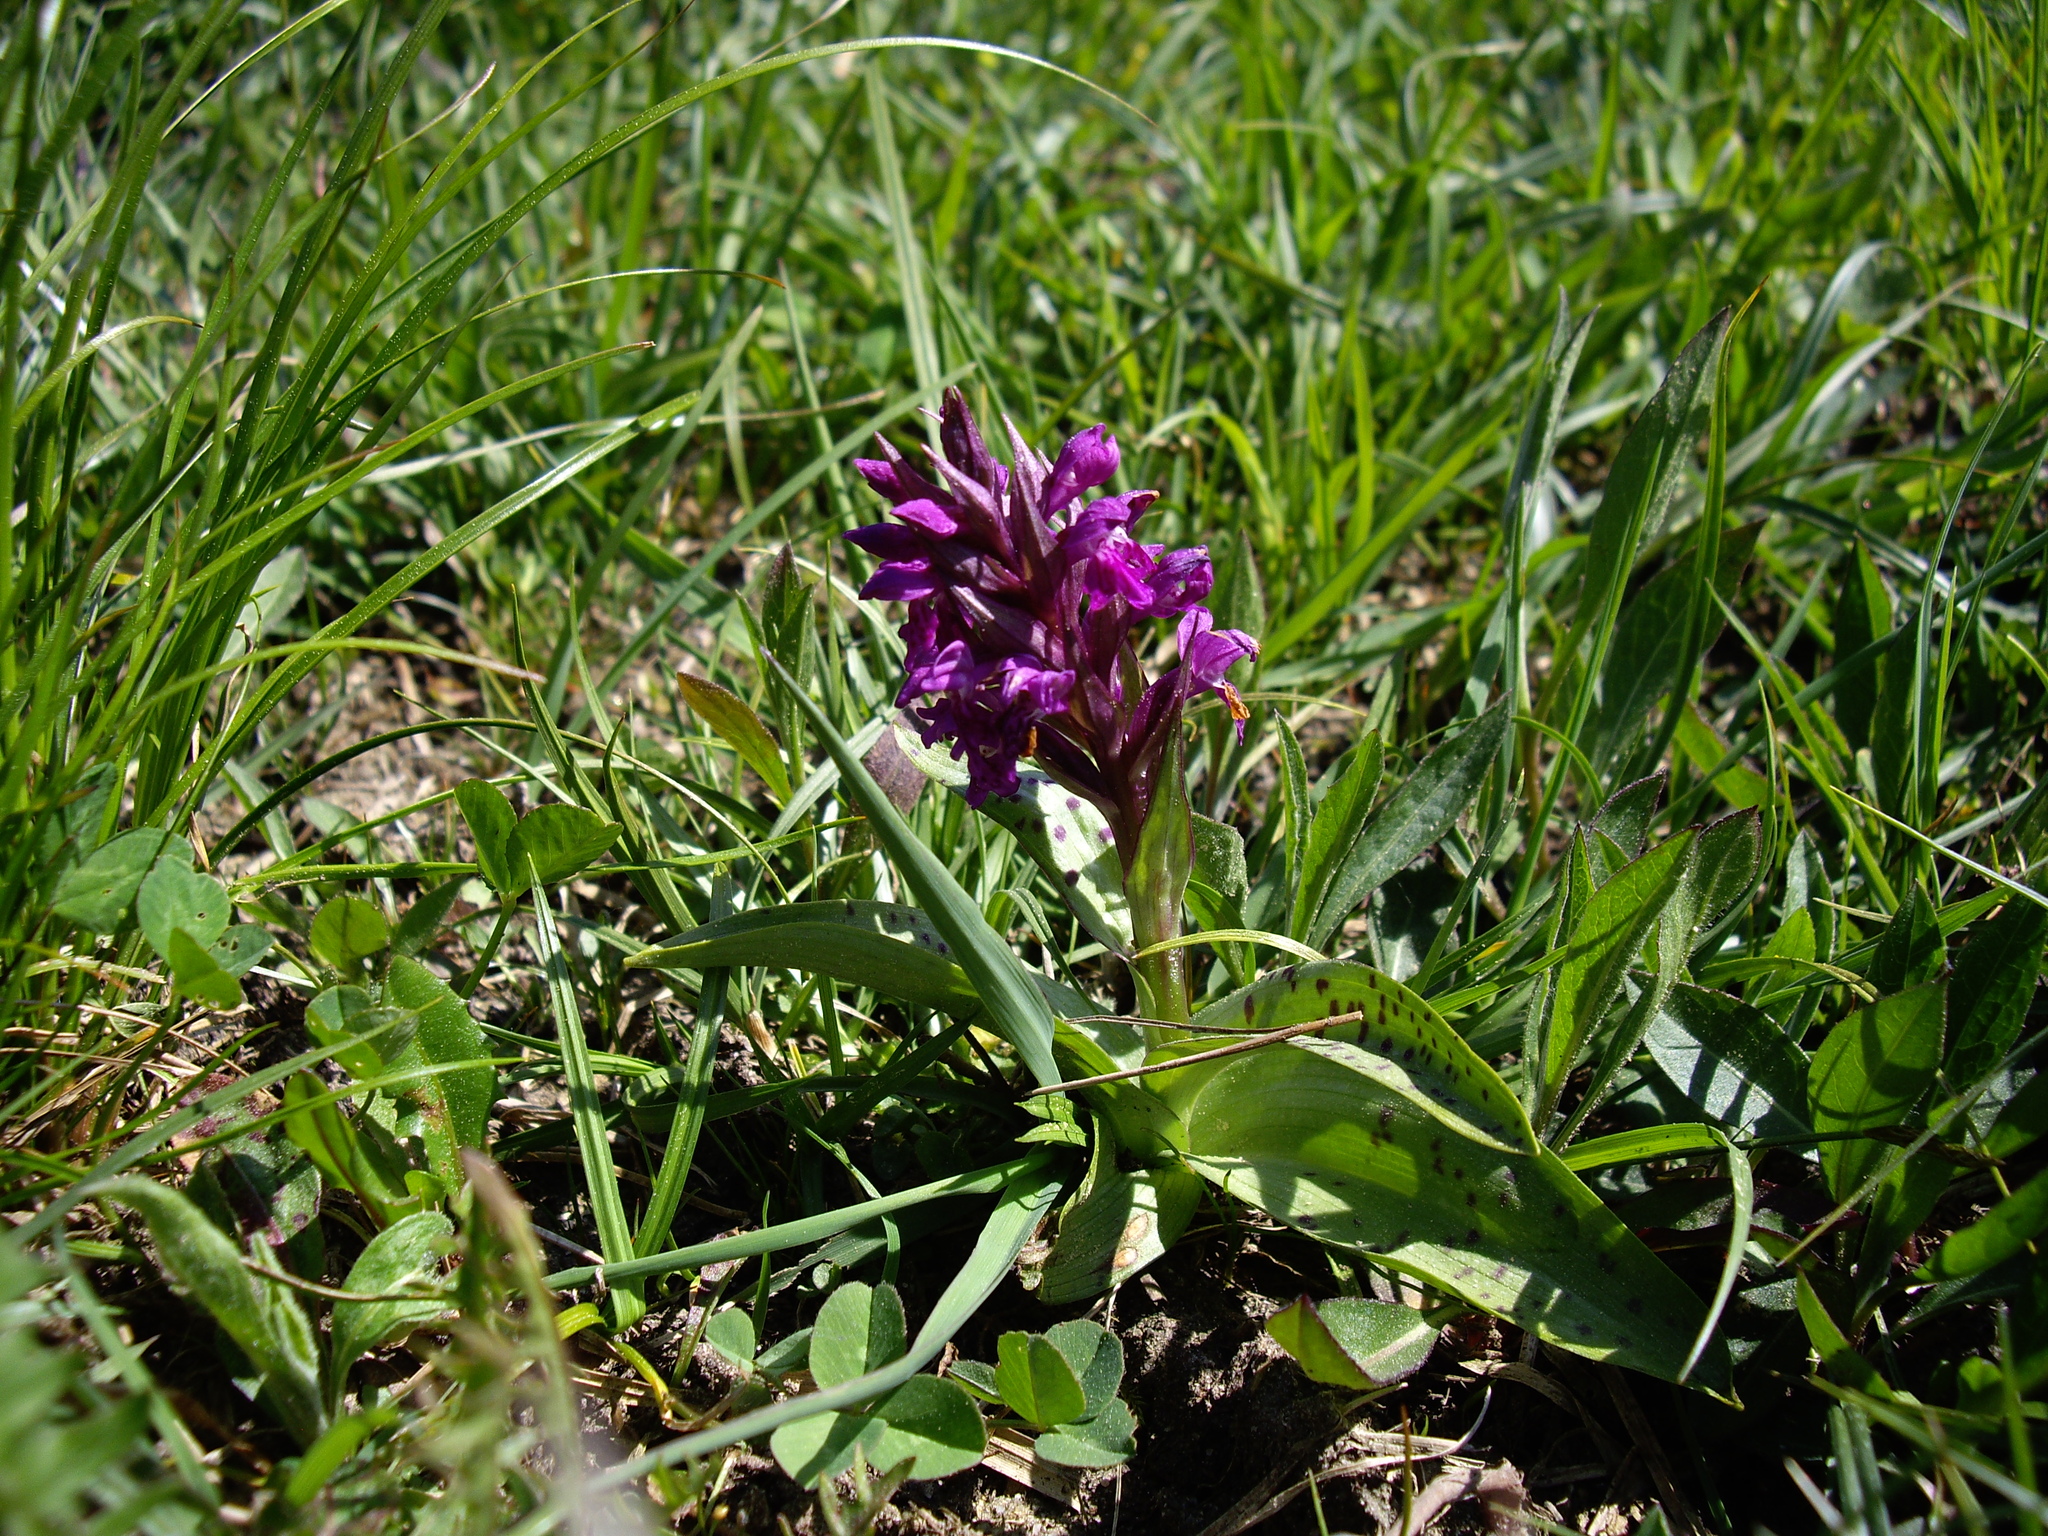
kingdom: Plantae
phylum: Tracheophyta
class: Liliopsida
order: Asparagales
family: Orchidaceae
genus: Dactylorhiza
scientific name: Dactylorhiza majalis
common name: Marsh orchid
